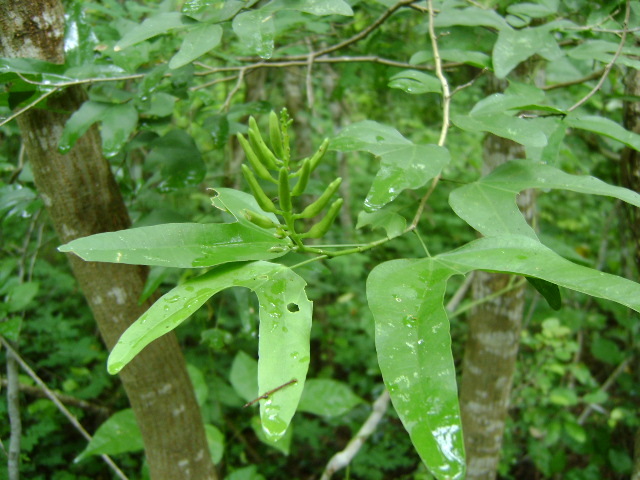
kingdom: Plantae
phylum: Tracheophyta
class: Magnoliopsida
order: Fabales
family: Fabaceae
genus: Bauhinia
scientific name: Bauhinia jucunda
